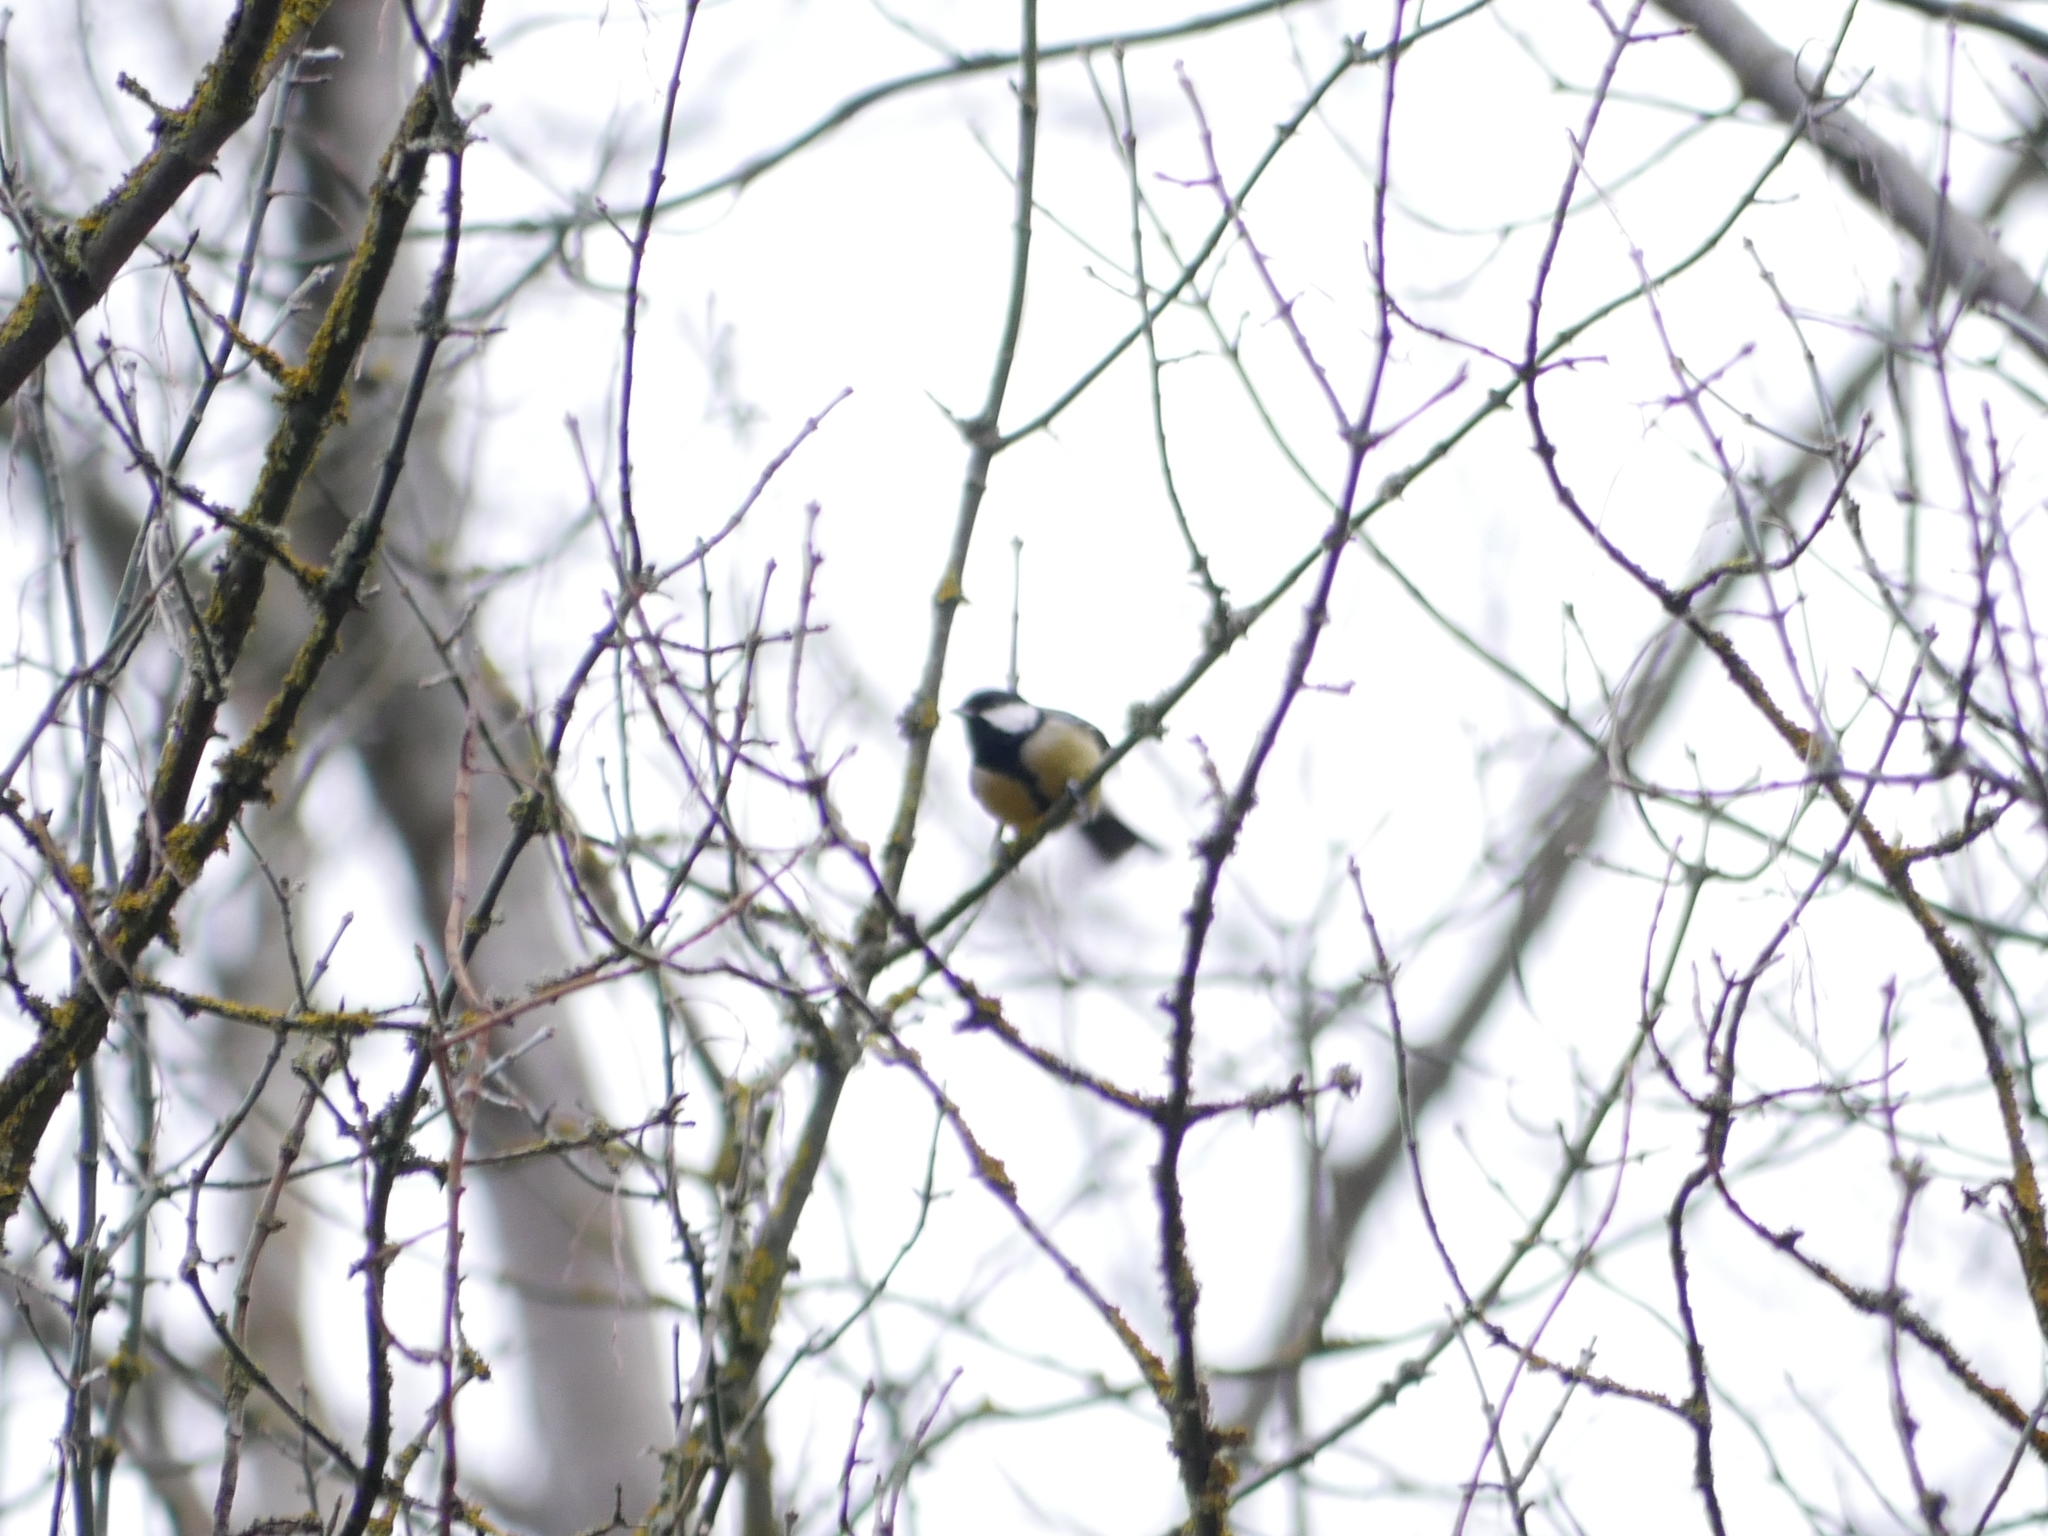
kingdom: Animalia
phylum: Chordata
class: Aves
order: Passeriformes
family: Paridae
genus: Parus
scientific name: Parus major
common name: Great tit
